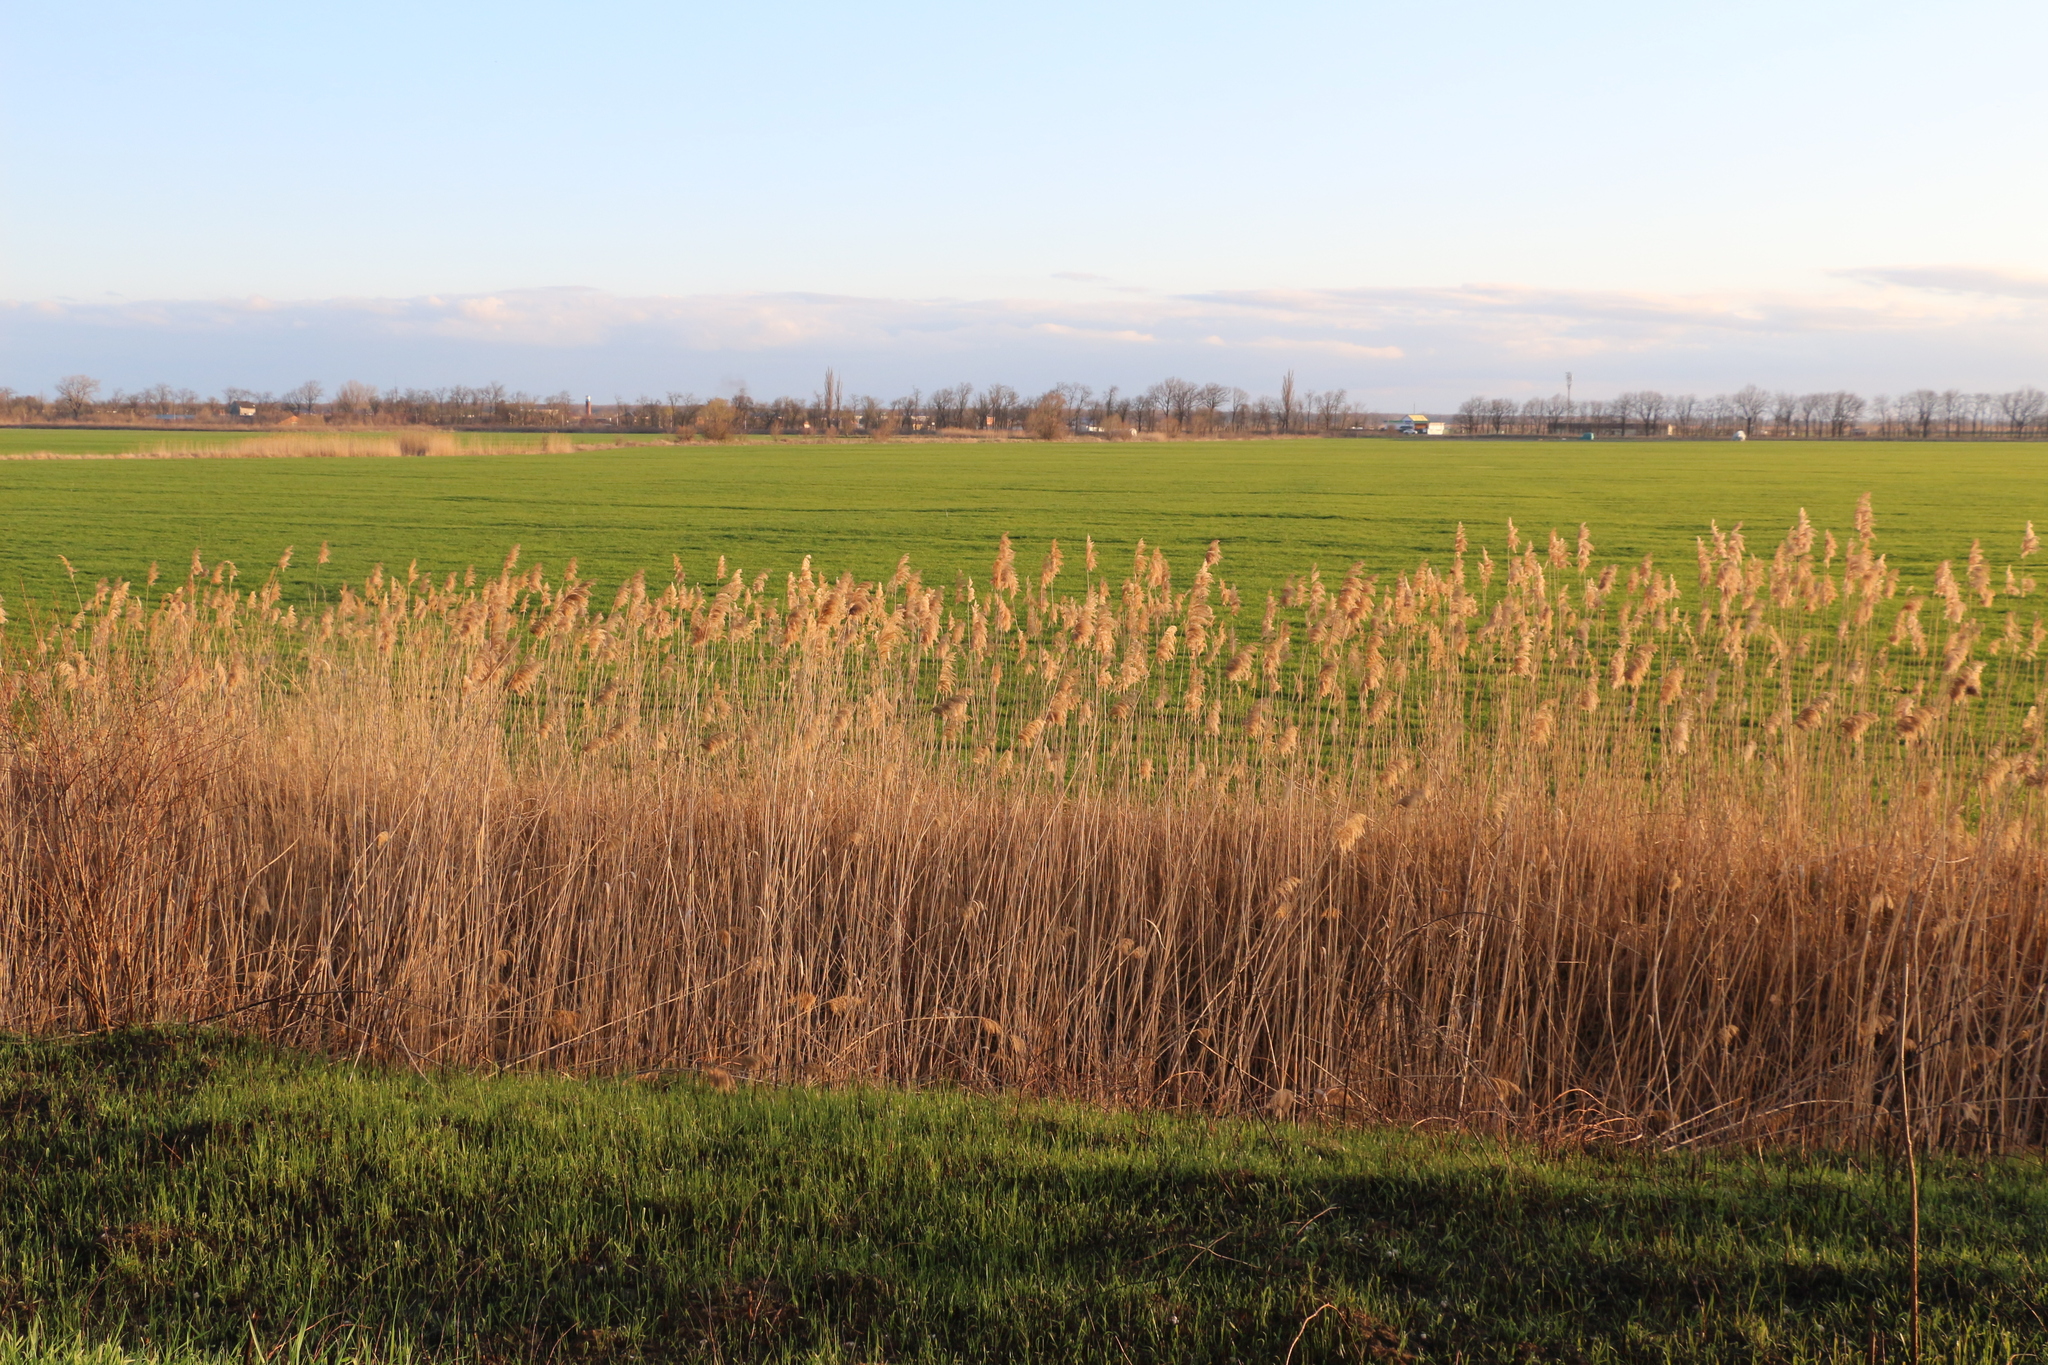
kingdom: Plantae
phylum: Tracheophyta
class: Liliopsida
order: Poales
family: Poaceae
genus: Phragmites
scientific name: Phragmites australis
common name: Common reed
